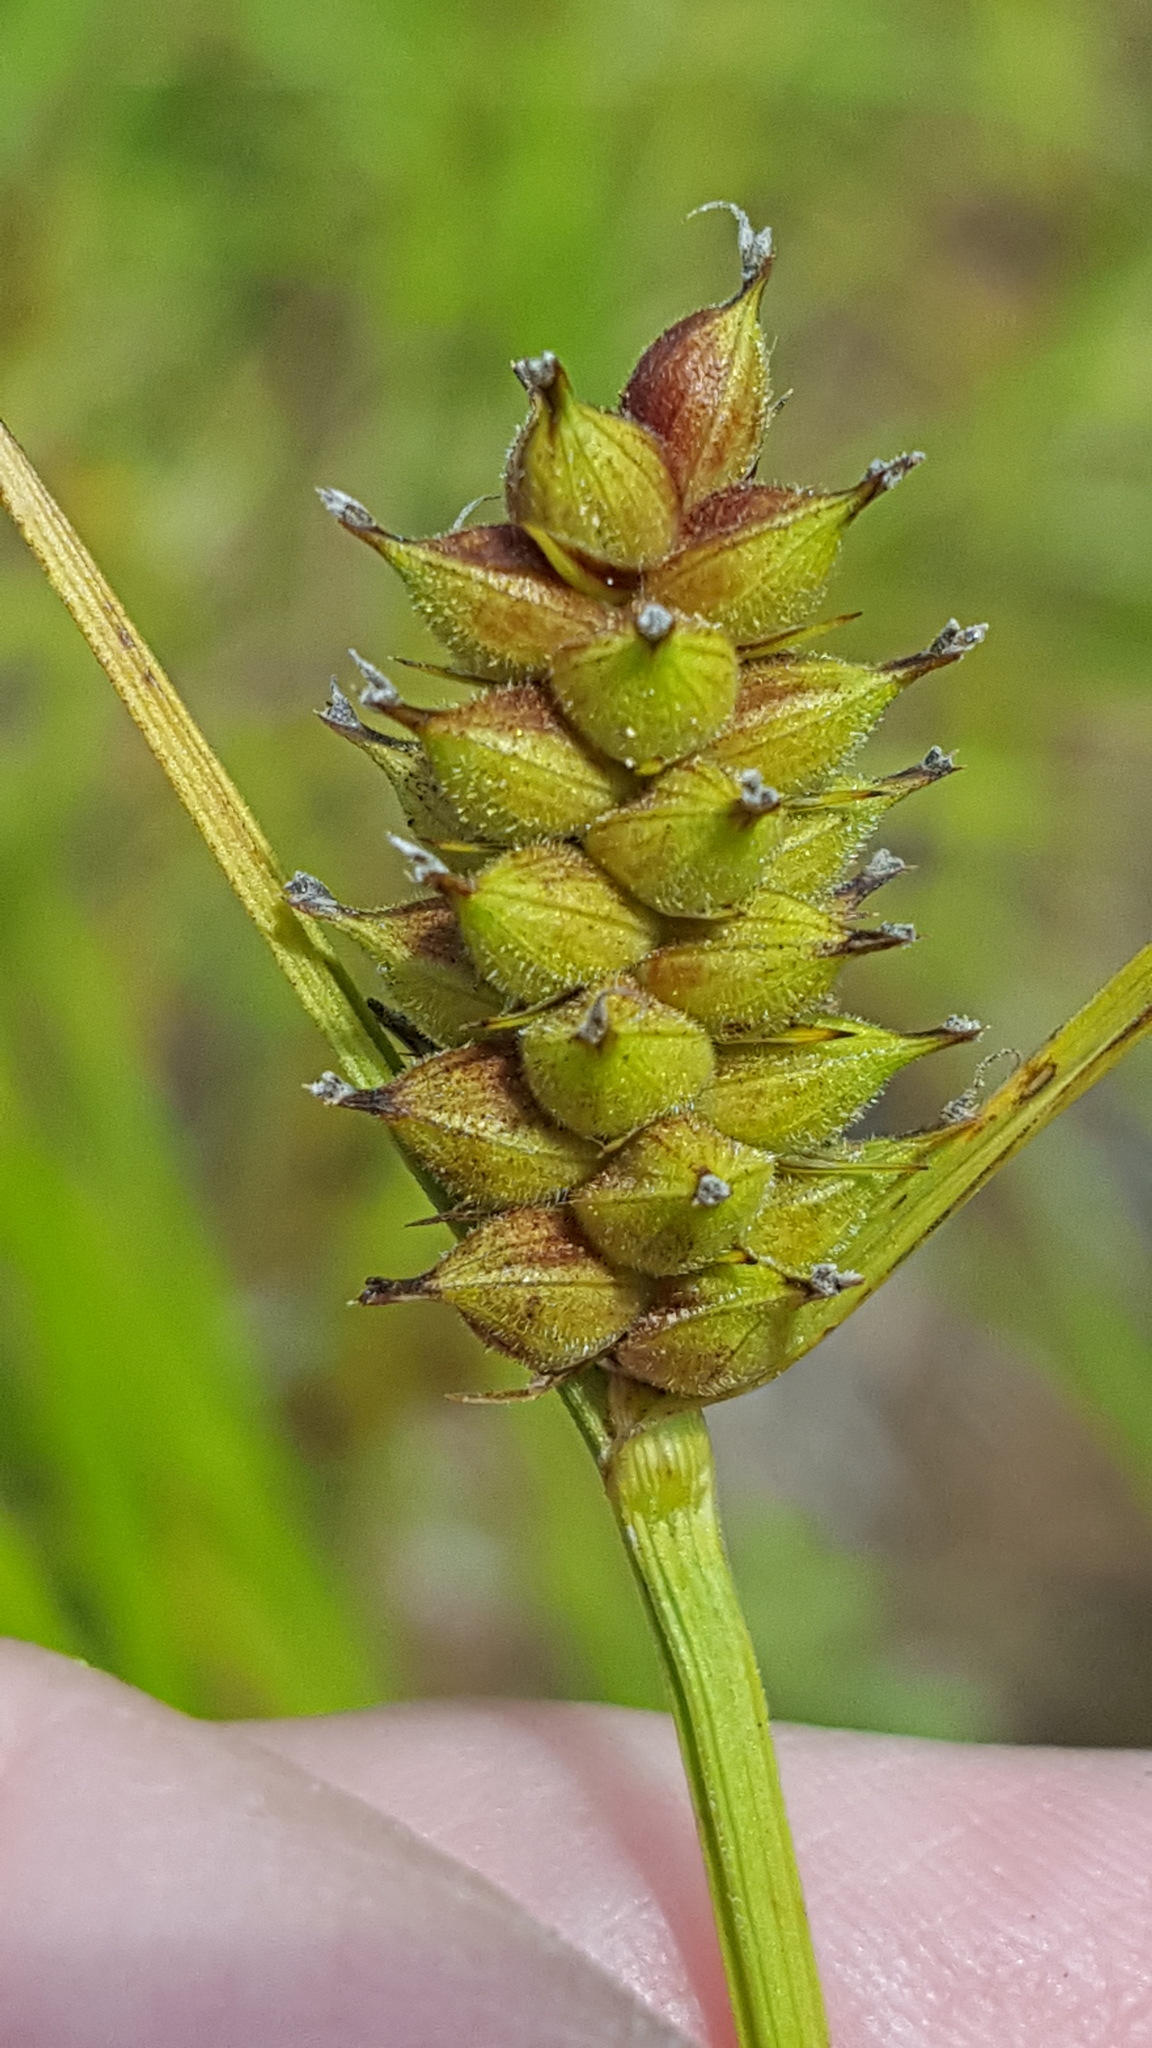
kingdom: Plantae
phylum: Tracheophyta
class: Liliopsida
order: Poales
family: Cyperaceae
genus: Carex
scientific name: Carex houghtoniana
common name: Houghton's sedge
